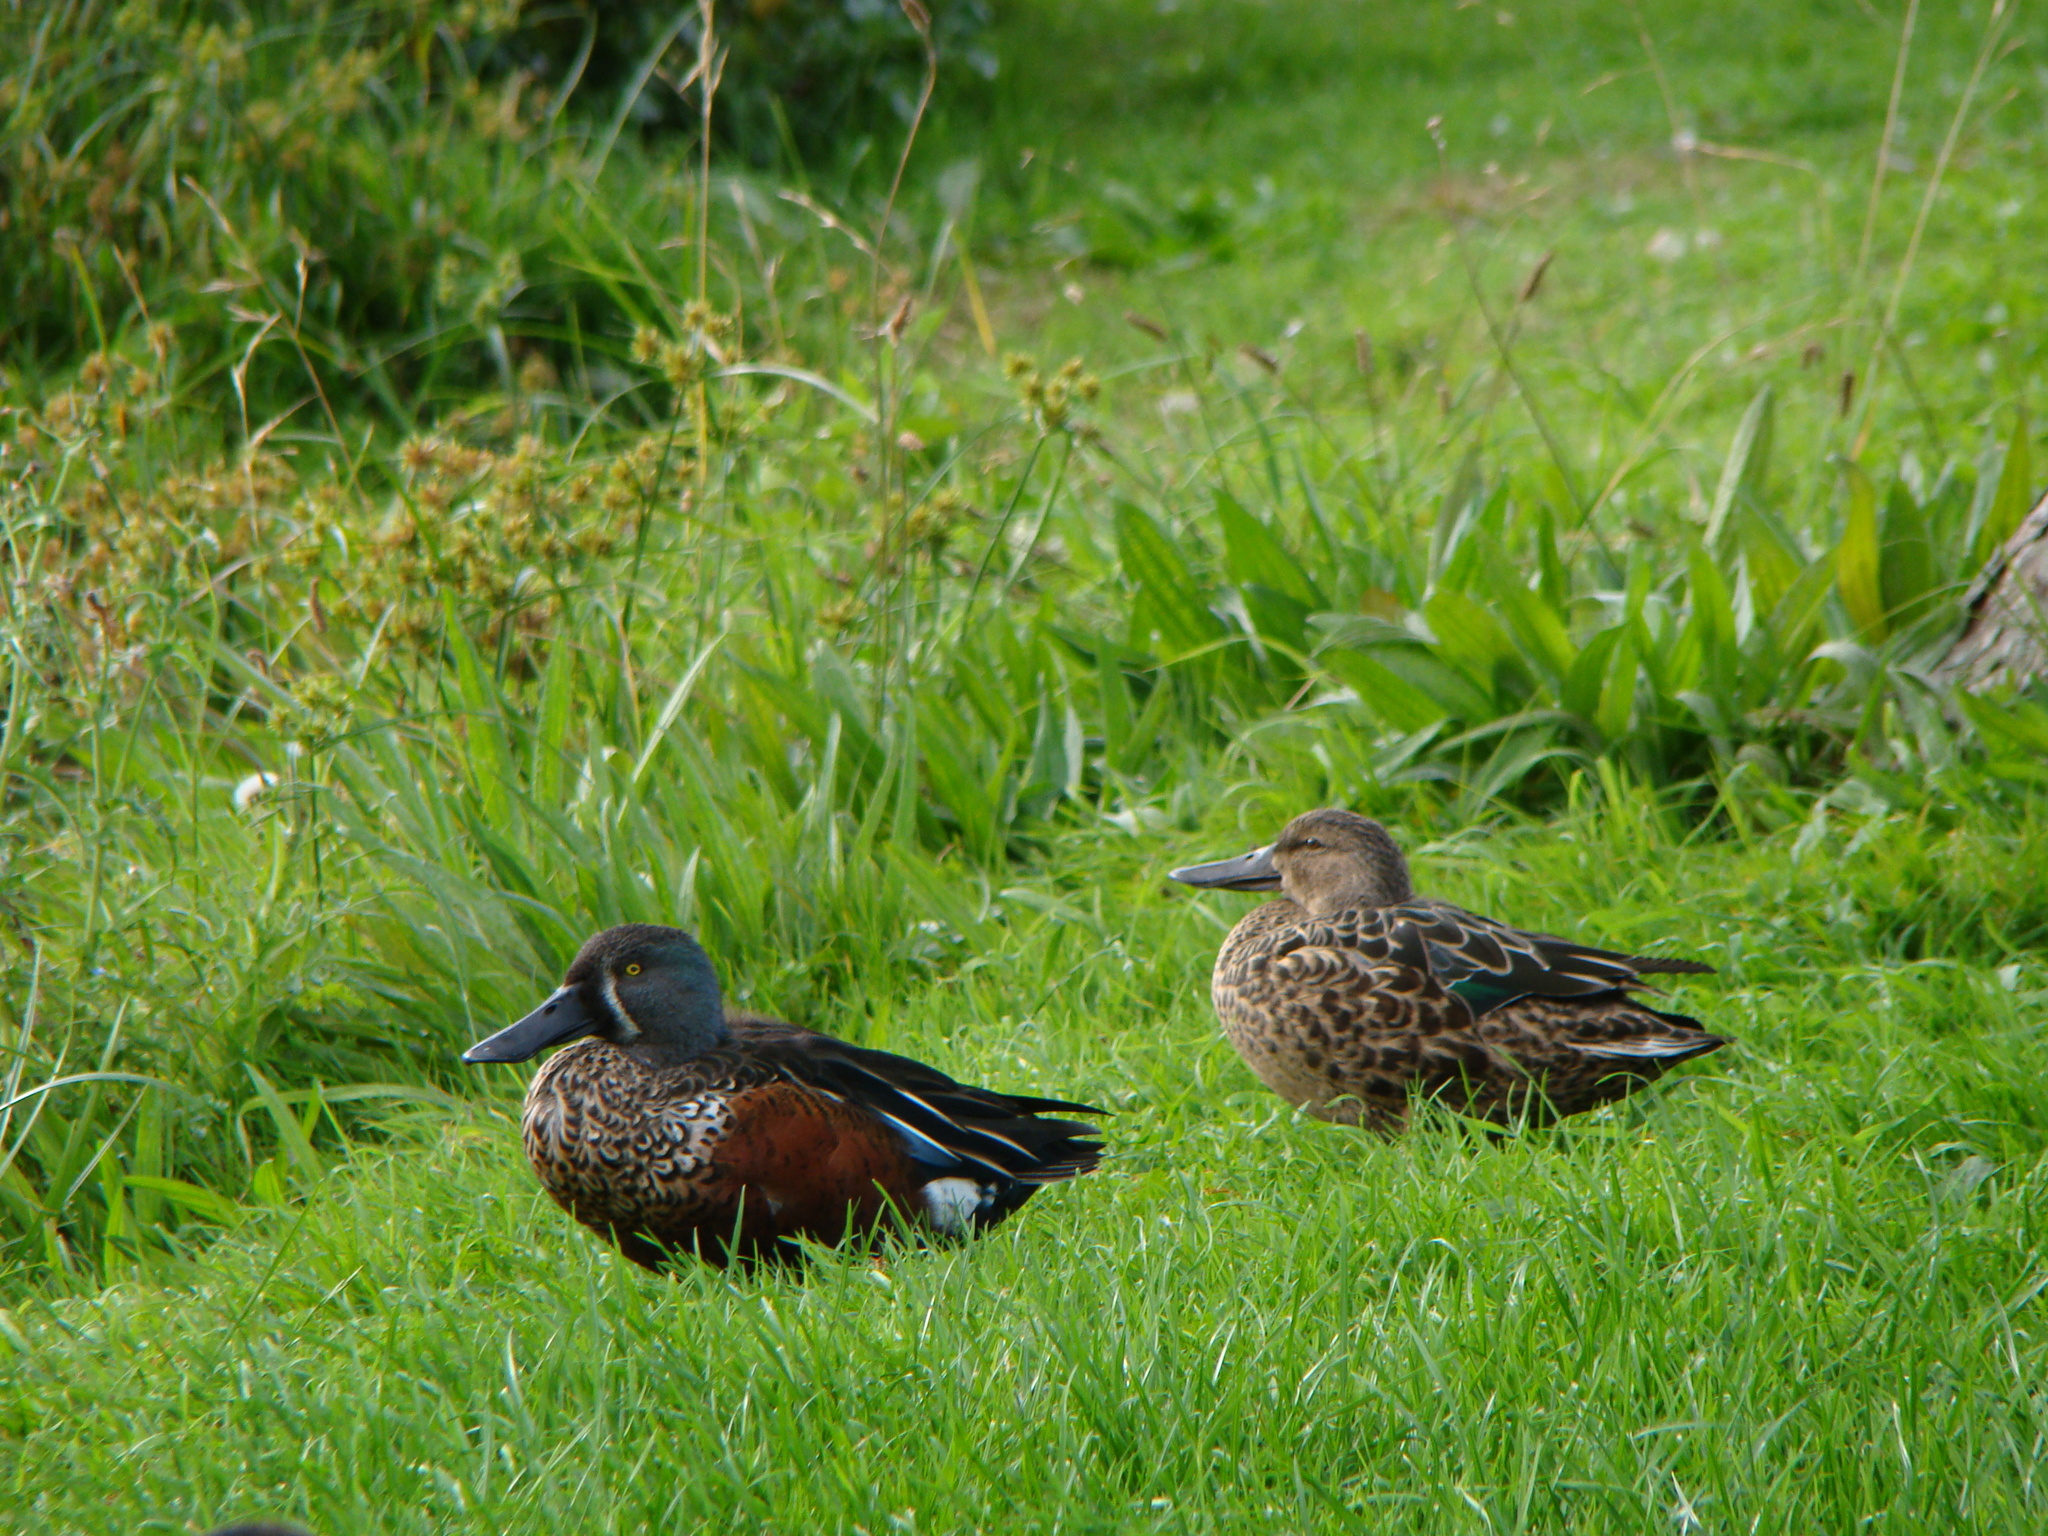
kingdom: Animalia
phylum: Chordata
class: Aves
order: Anseriformes
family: Anatidae
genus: Spatula
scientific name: Spatula rhynchotis
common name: Australian shoveler
